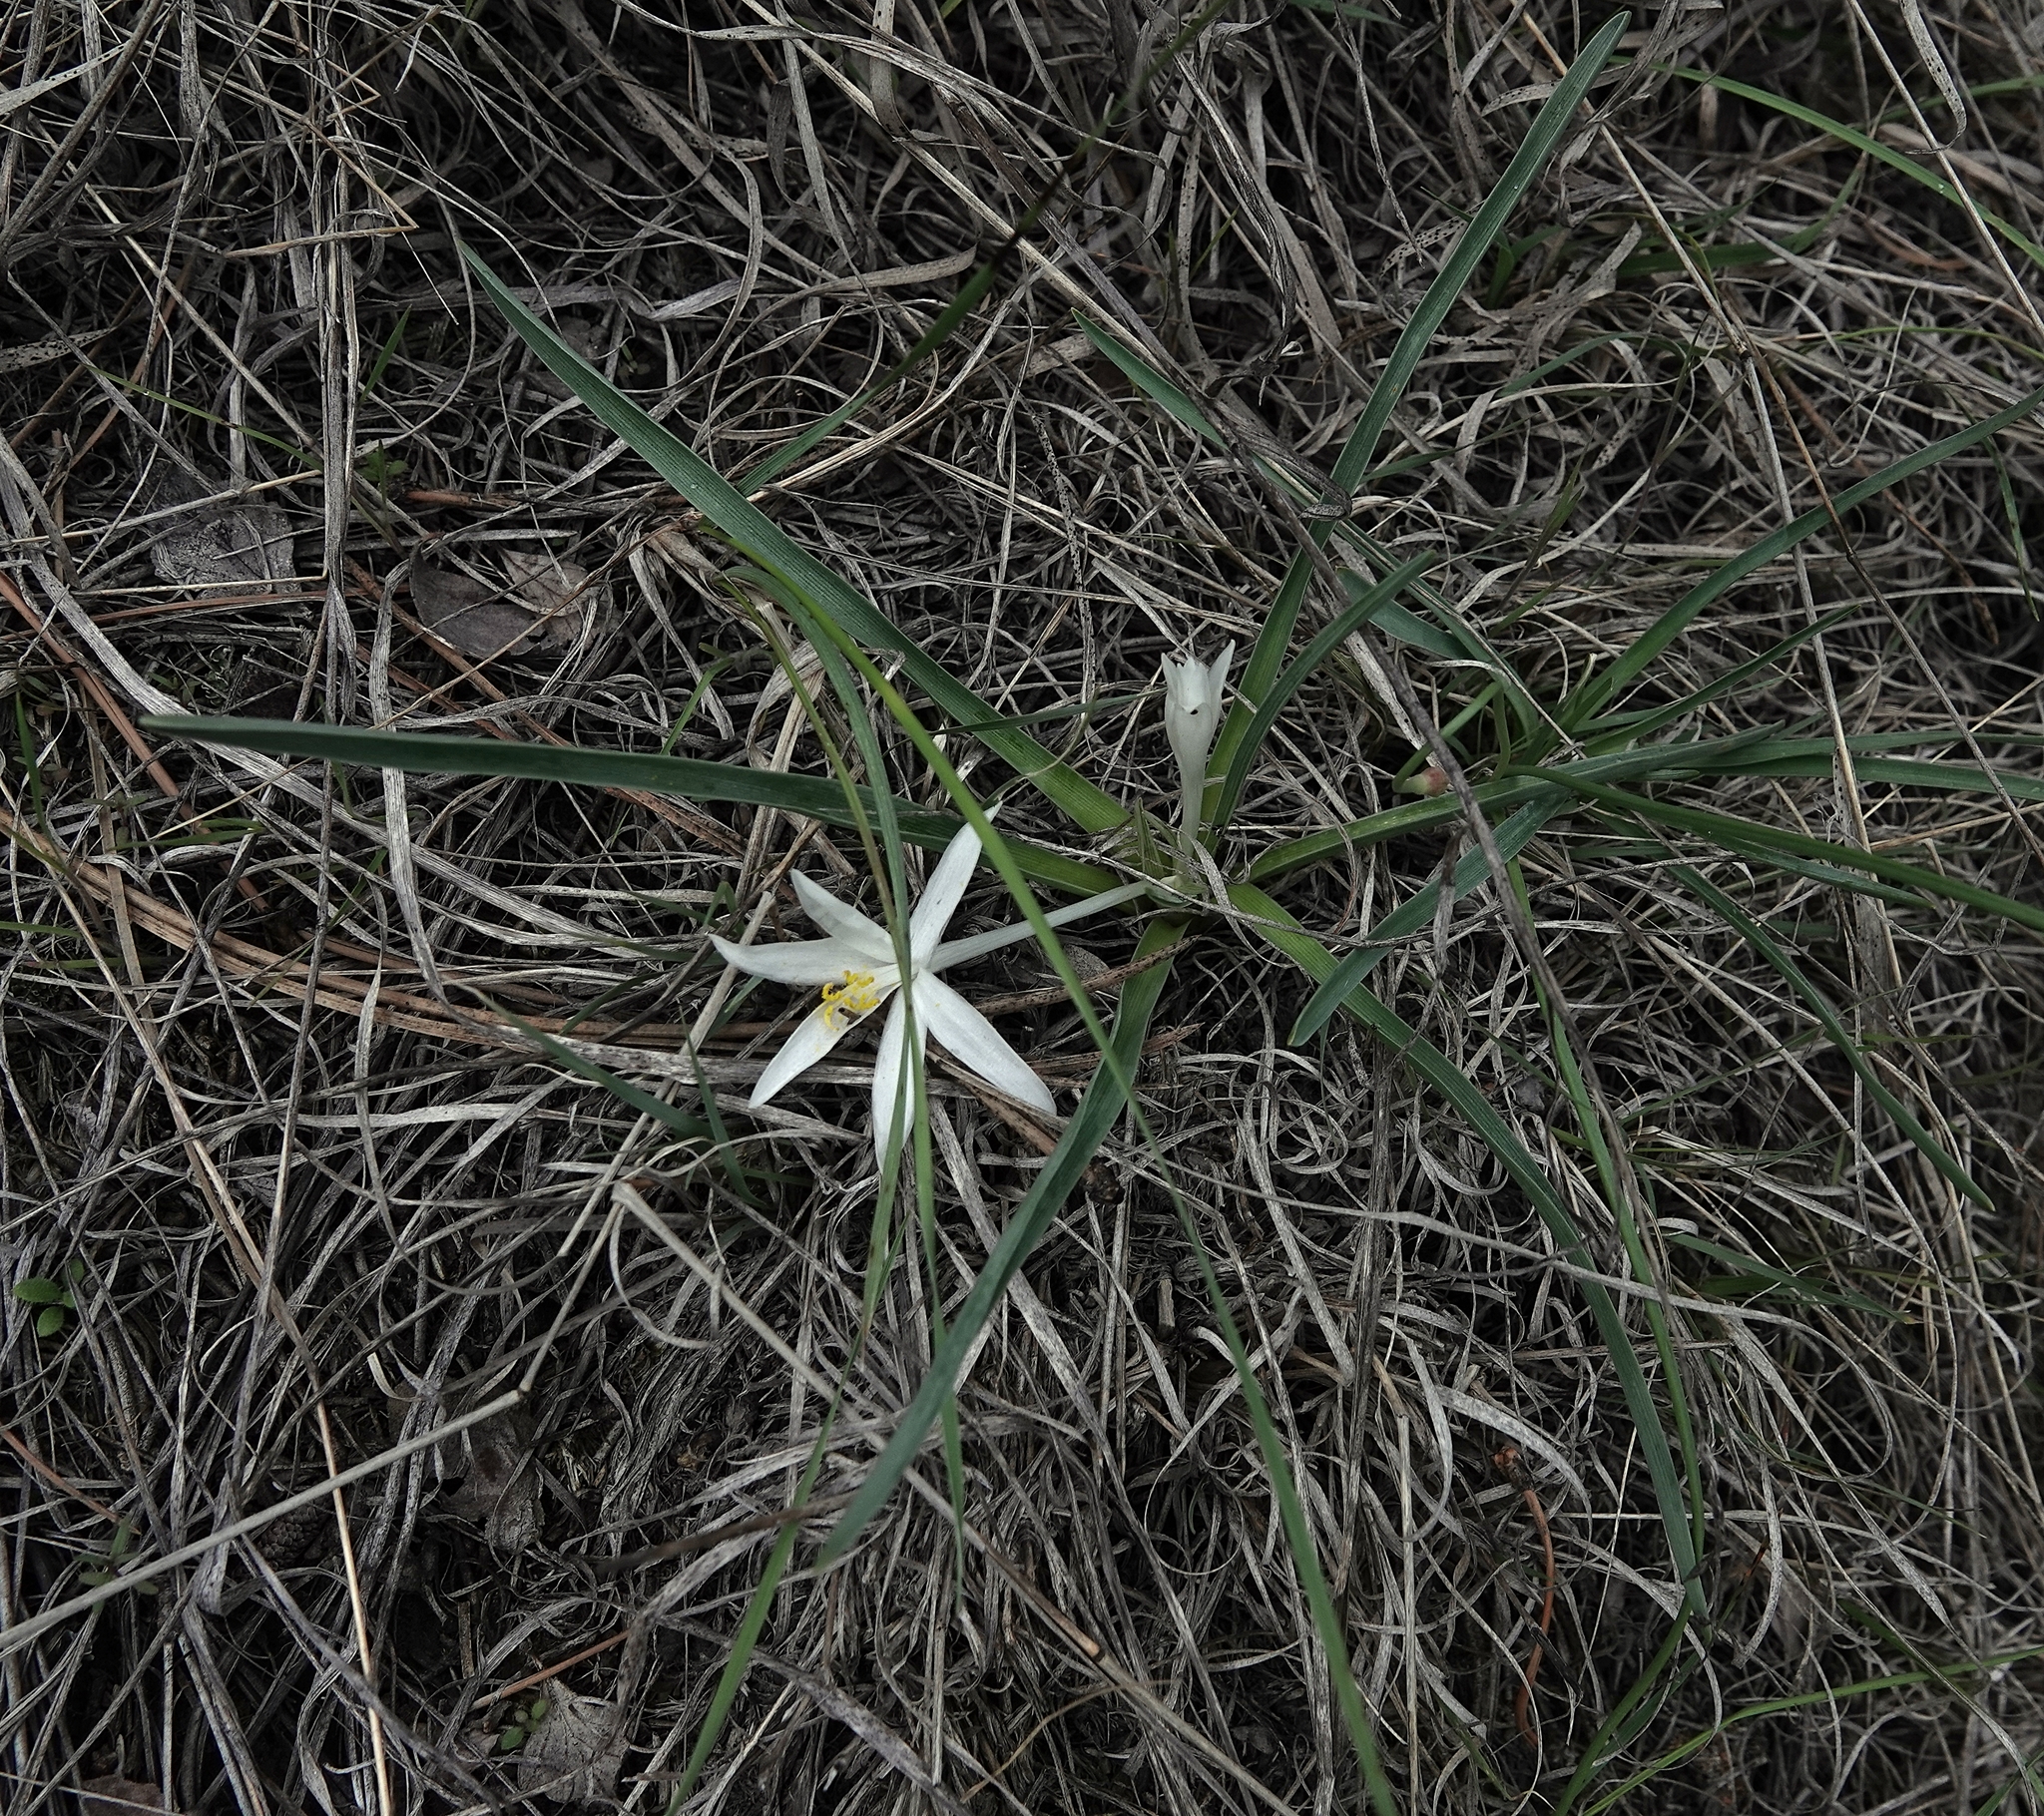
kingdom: Plantae
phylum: Tracheophyta
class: Liliopsida
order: Asparagales
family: Asparagaceae
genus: Leucocrinum
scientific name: Leucocrinum montanum
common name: Mountain-lily
